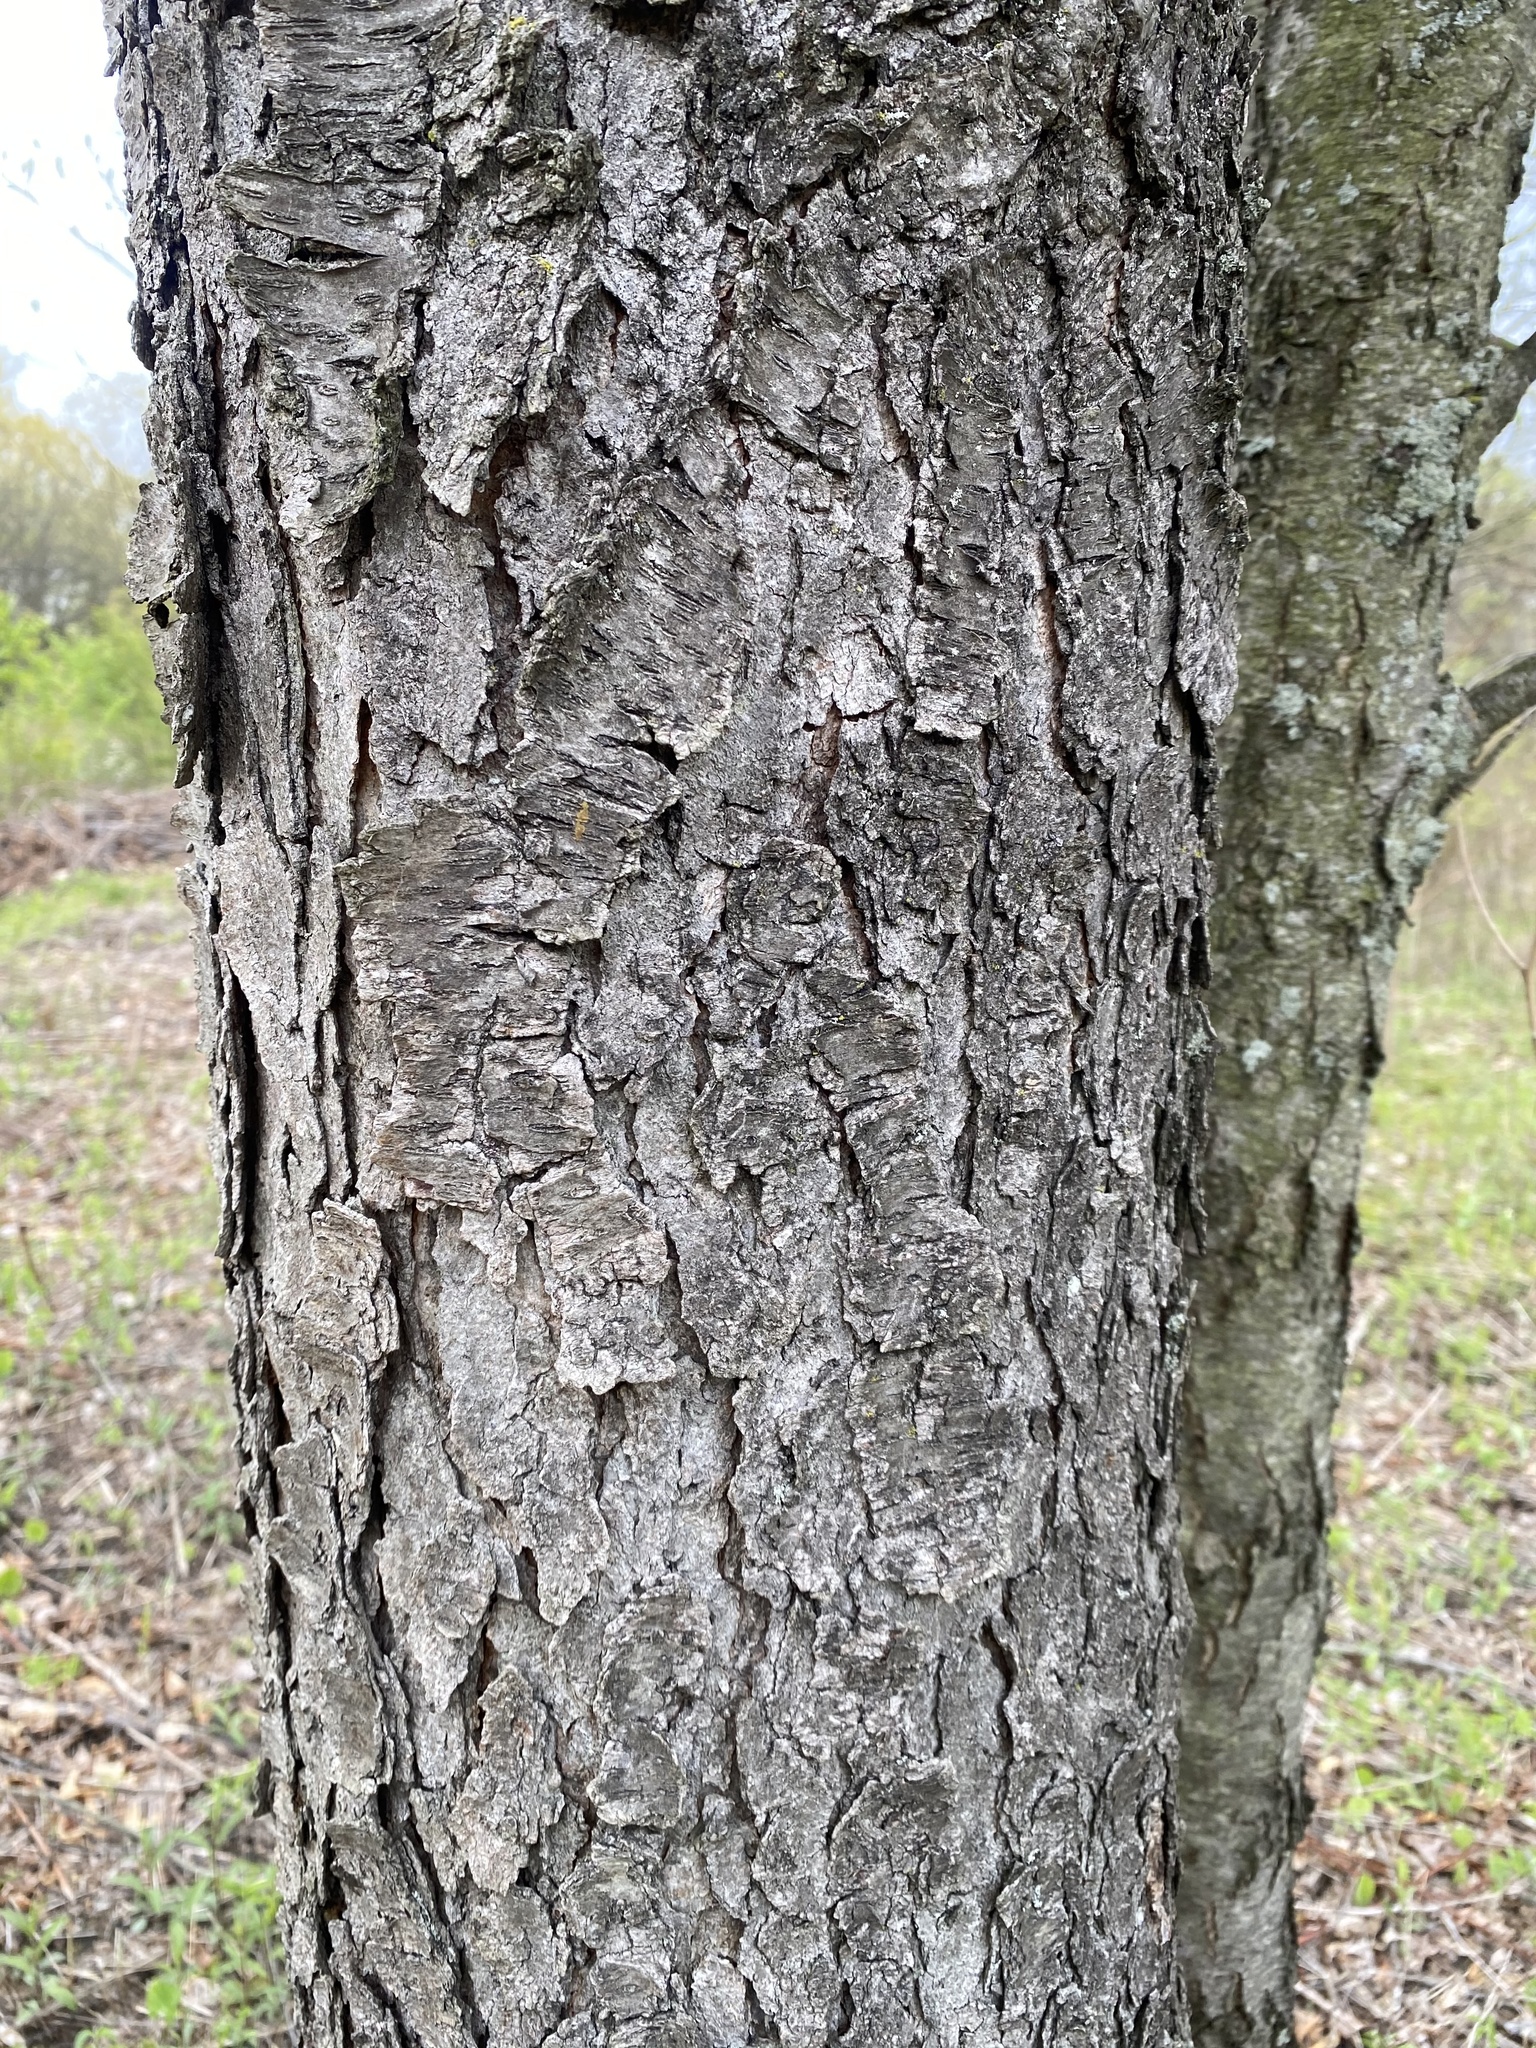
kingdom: Plantae
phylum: Tracheophyta
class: Magnoliopsida
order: Rosales
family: Rosaceae
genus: Prunus
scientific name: Prunus serotina
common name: Black cherry
